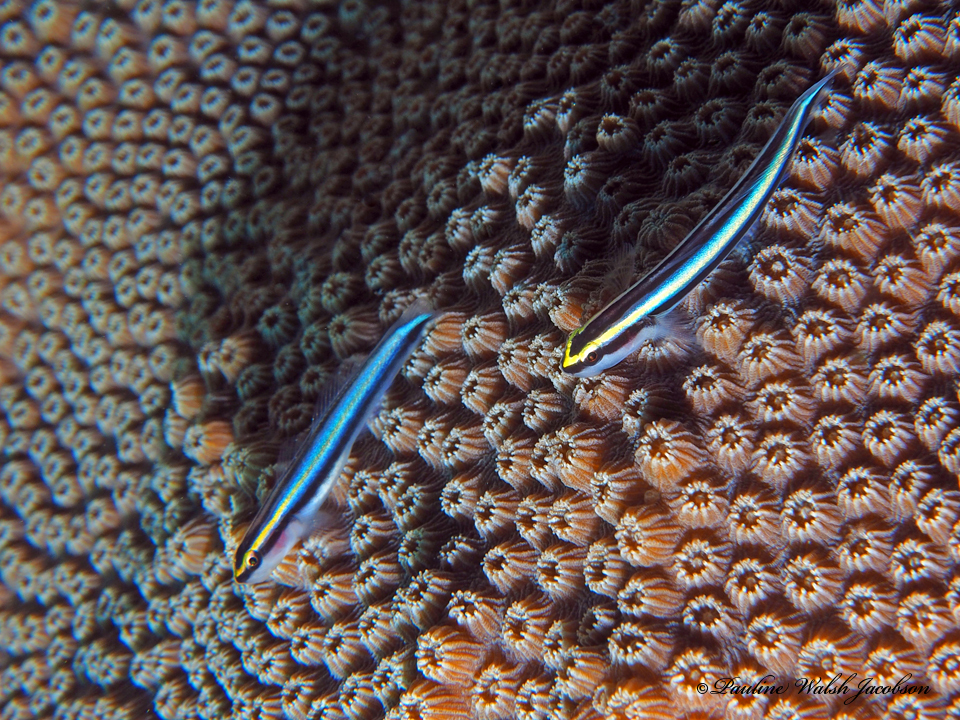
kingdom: Animalia
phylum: Chordata
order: Perciformes
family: Gobiidae
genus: Elacatinus
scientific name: Elacatinus evelynae
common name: Sharknose goby
